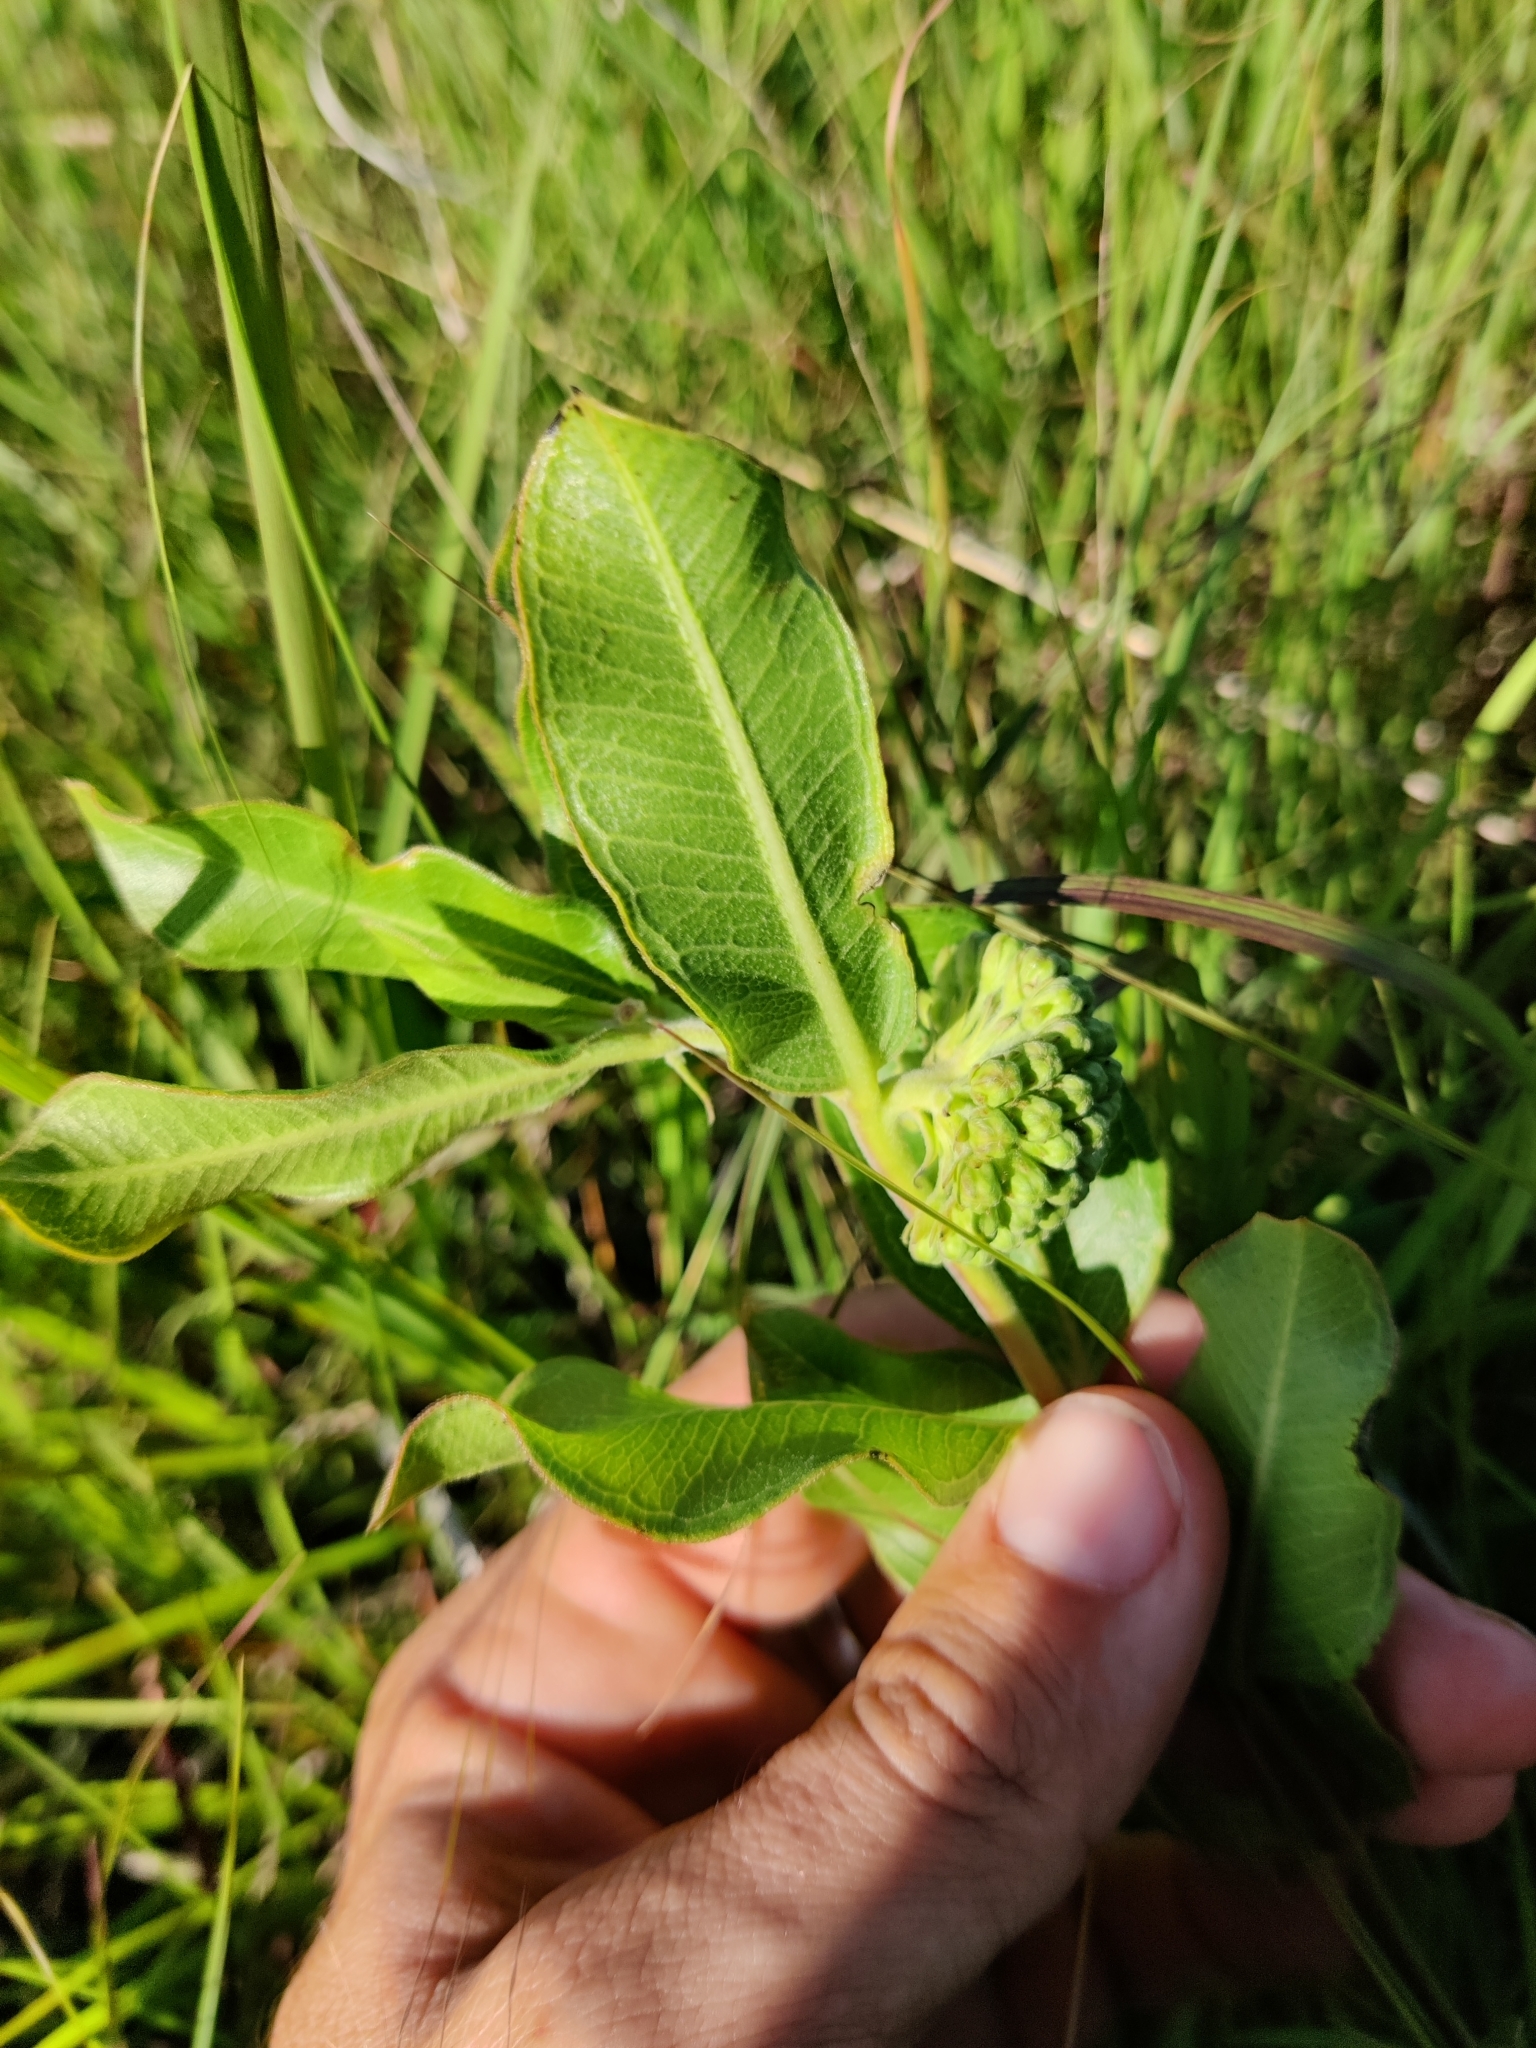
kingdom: Plantae
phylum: Tracheophyta
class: Magnoliopsida
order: Gentianales
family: Apocynaceae
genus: Asclepias
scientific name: Asclepias viridiflora
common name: Green comet milkweed
